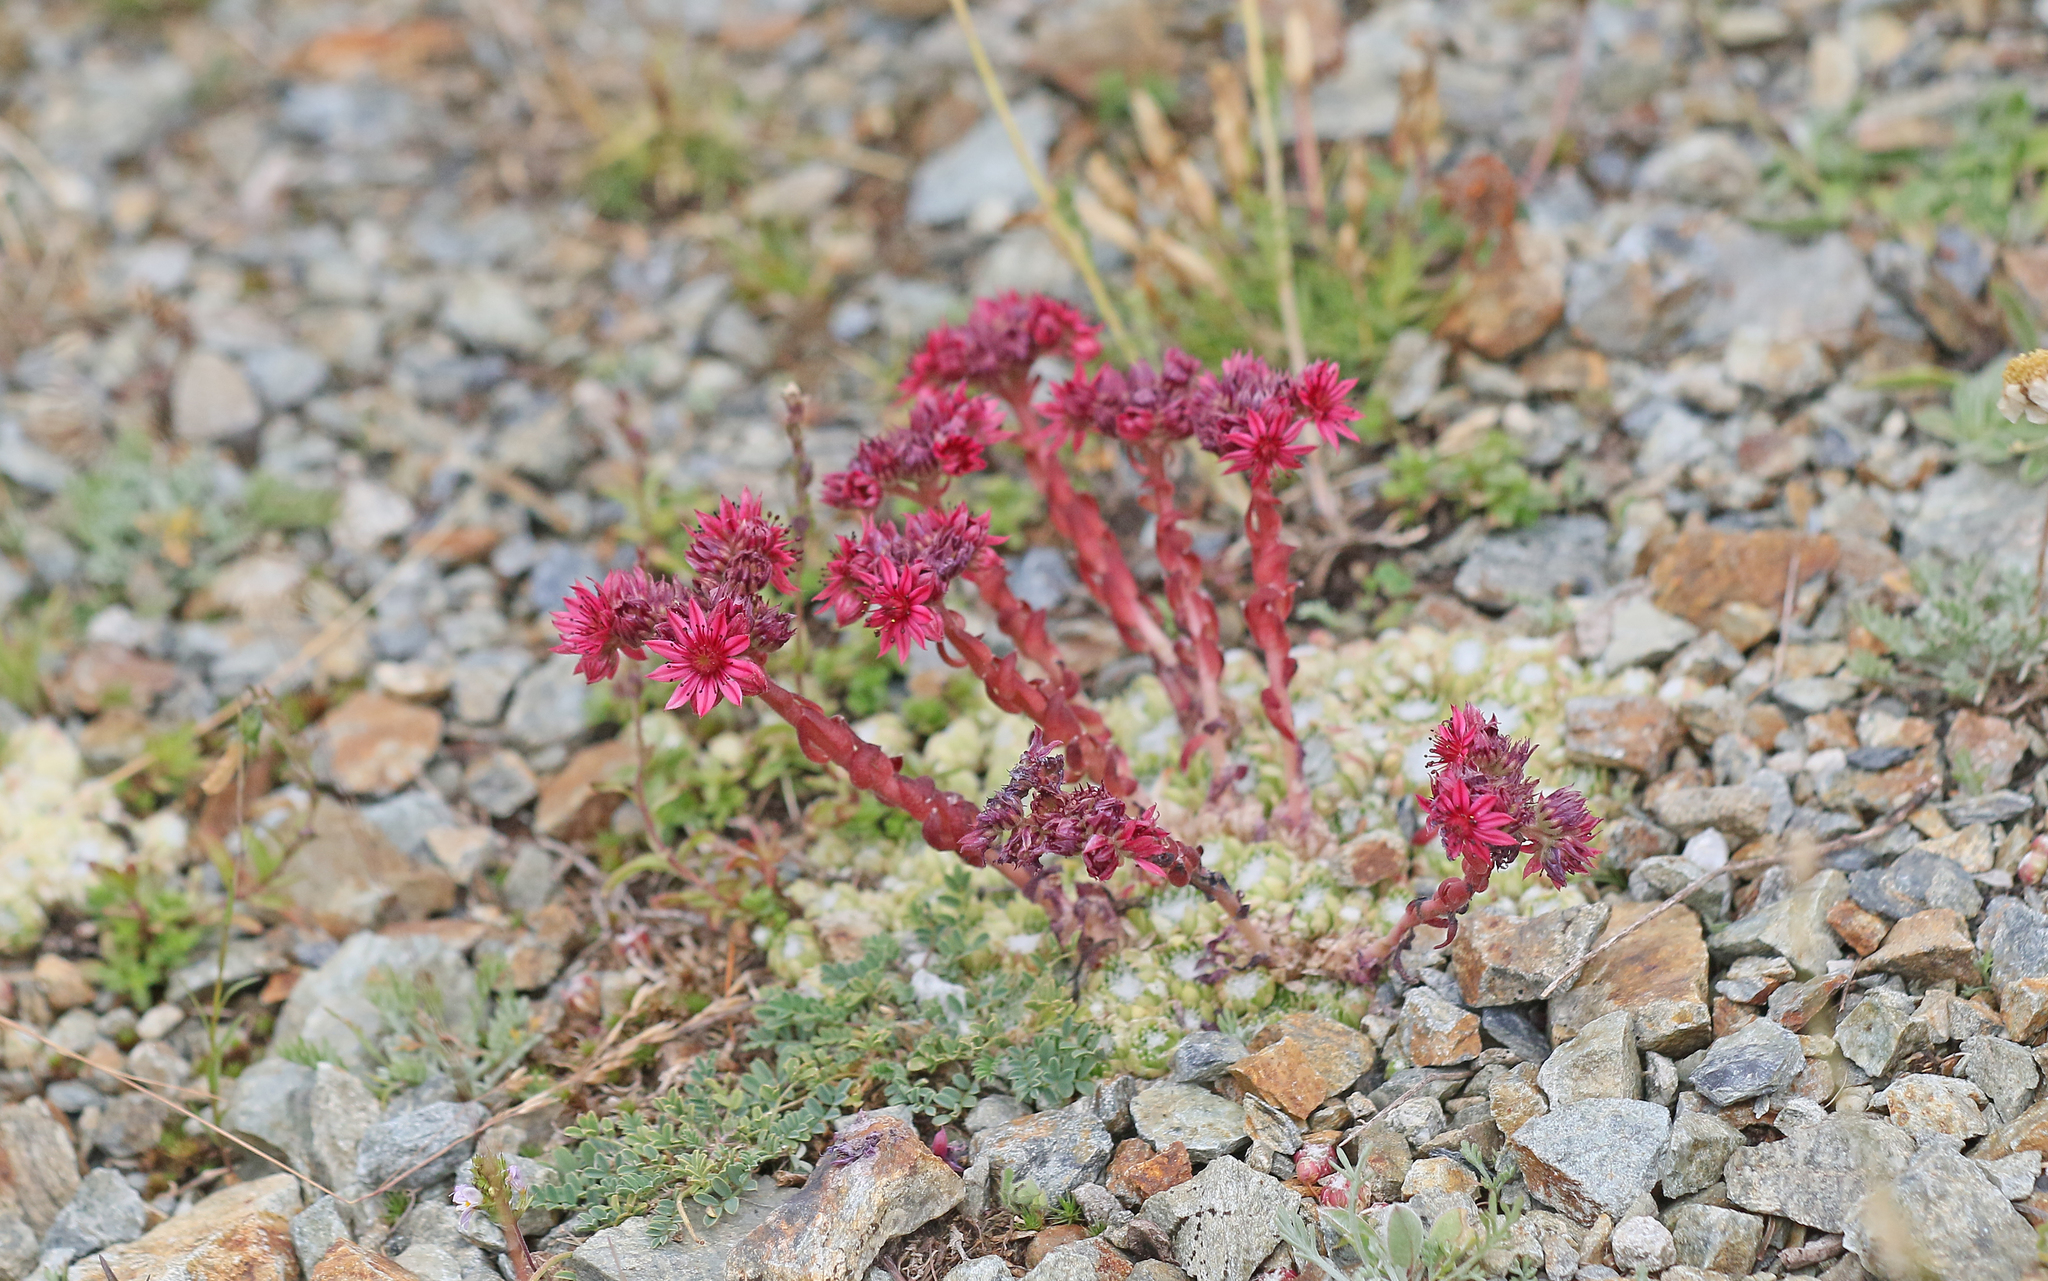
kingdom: Plantae
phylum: Tracheophyta
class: Magnoliopsida
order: Saxifragales
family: Crassulaceae
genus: Sempervivum
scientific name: Sempervivum arachnoideum
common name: Cobweb house-leek
